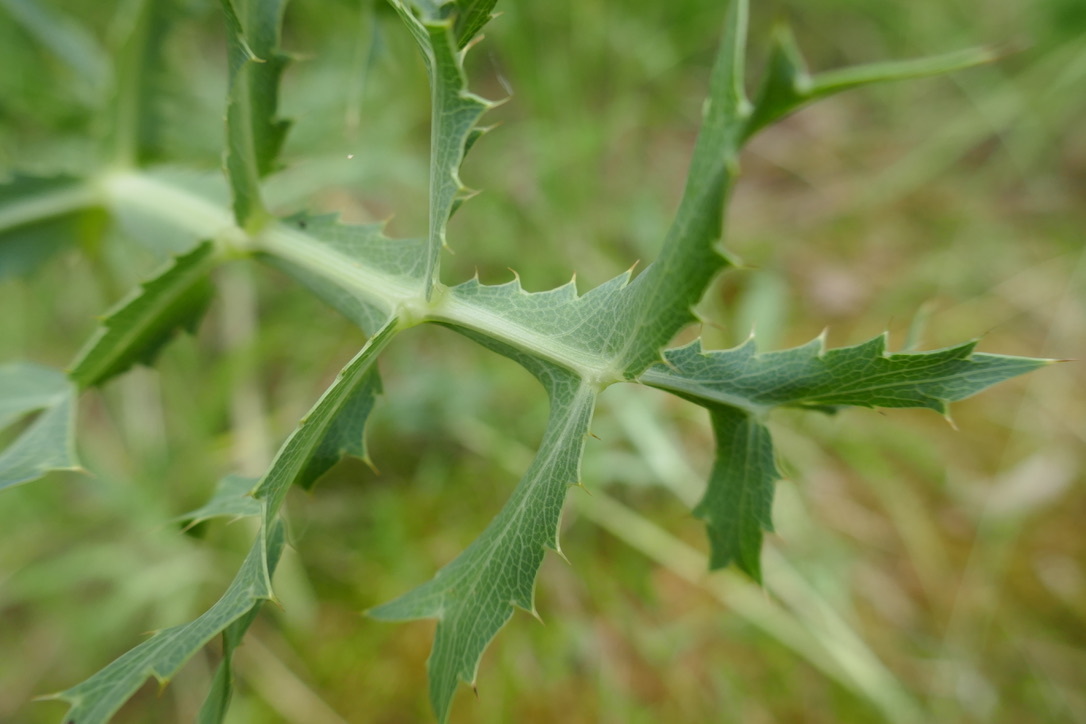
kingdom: Plantae
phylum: Tracheophyta
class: Magnoliopsida
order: Apiales
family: Apiaceae
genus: Eryngium
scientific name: Eryngium campestre
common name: Field eryngo
